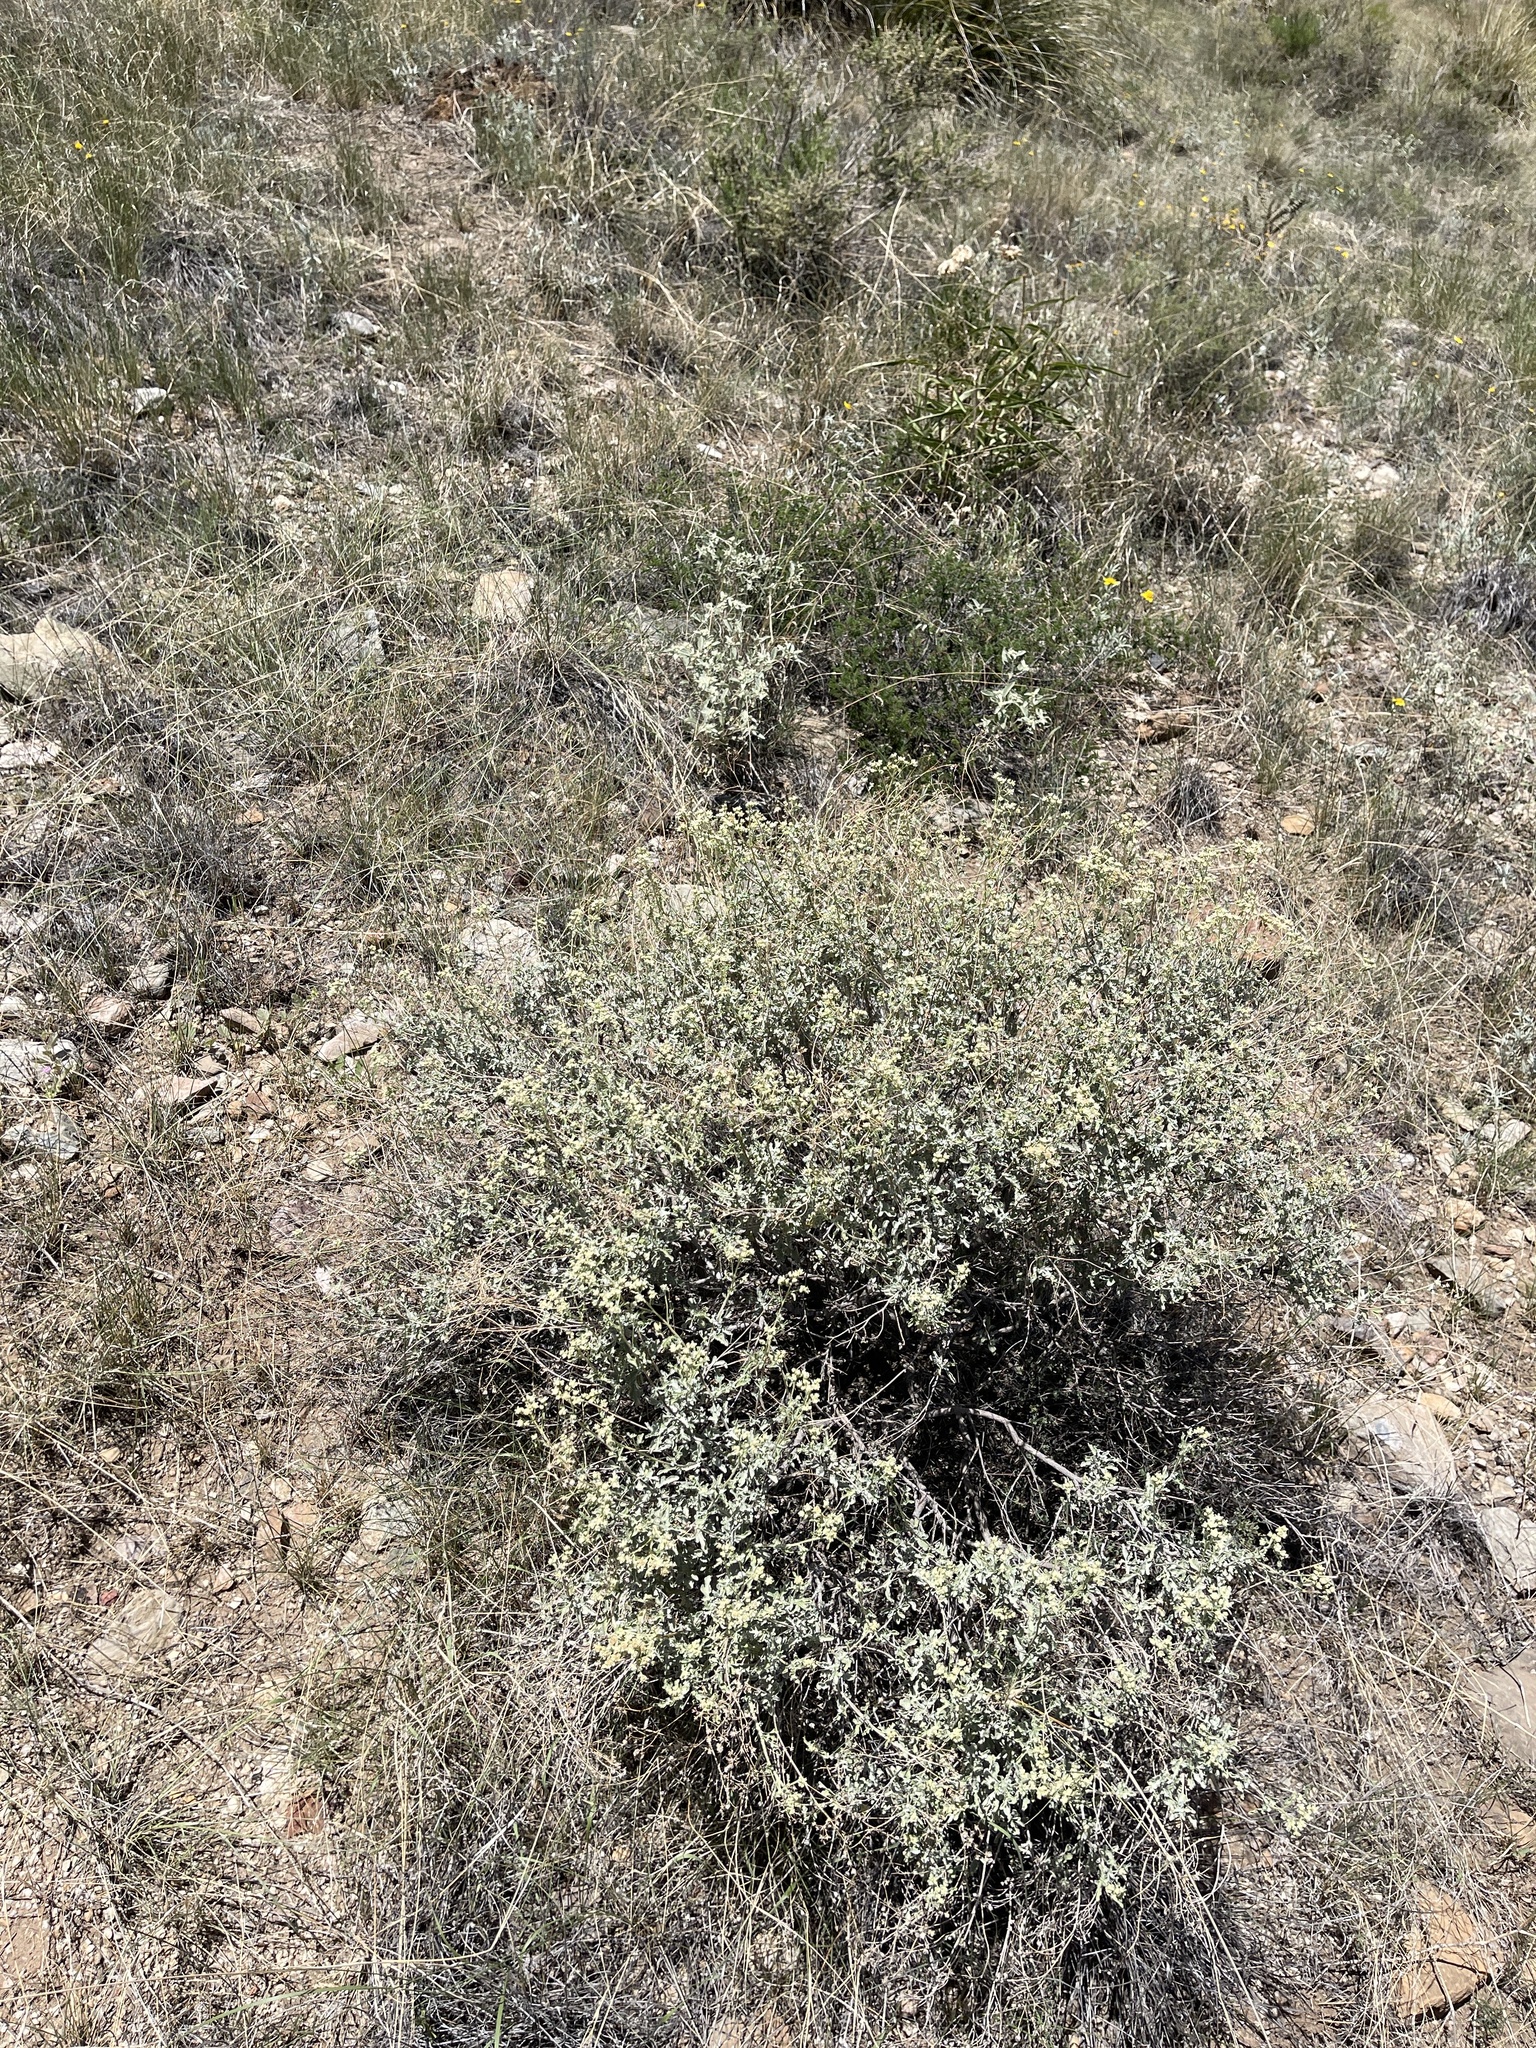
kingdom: Plantae
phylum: Tracheophyta
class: Magnoliopsida
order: Asterales
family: Asteraceae
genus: Parthenium
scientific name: Parthenium incanum
